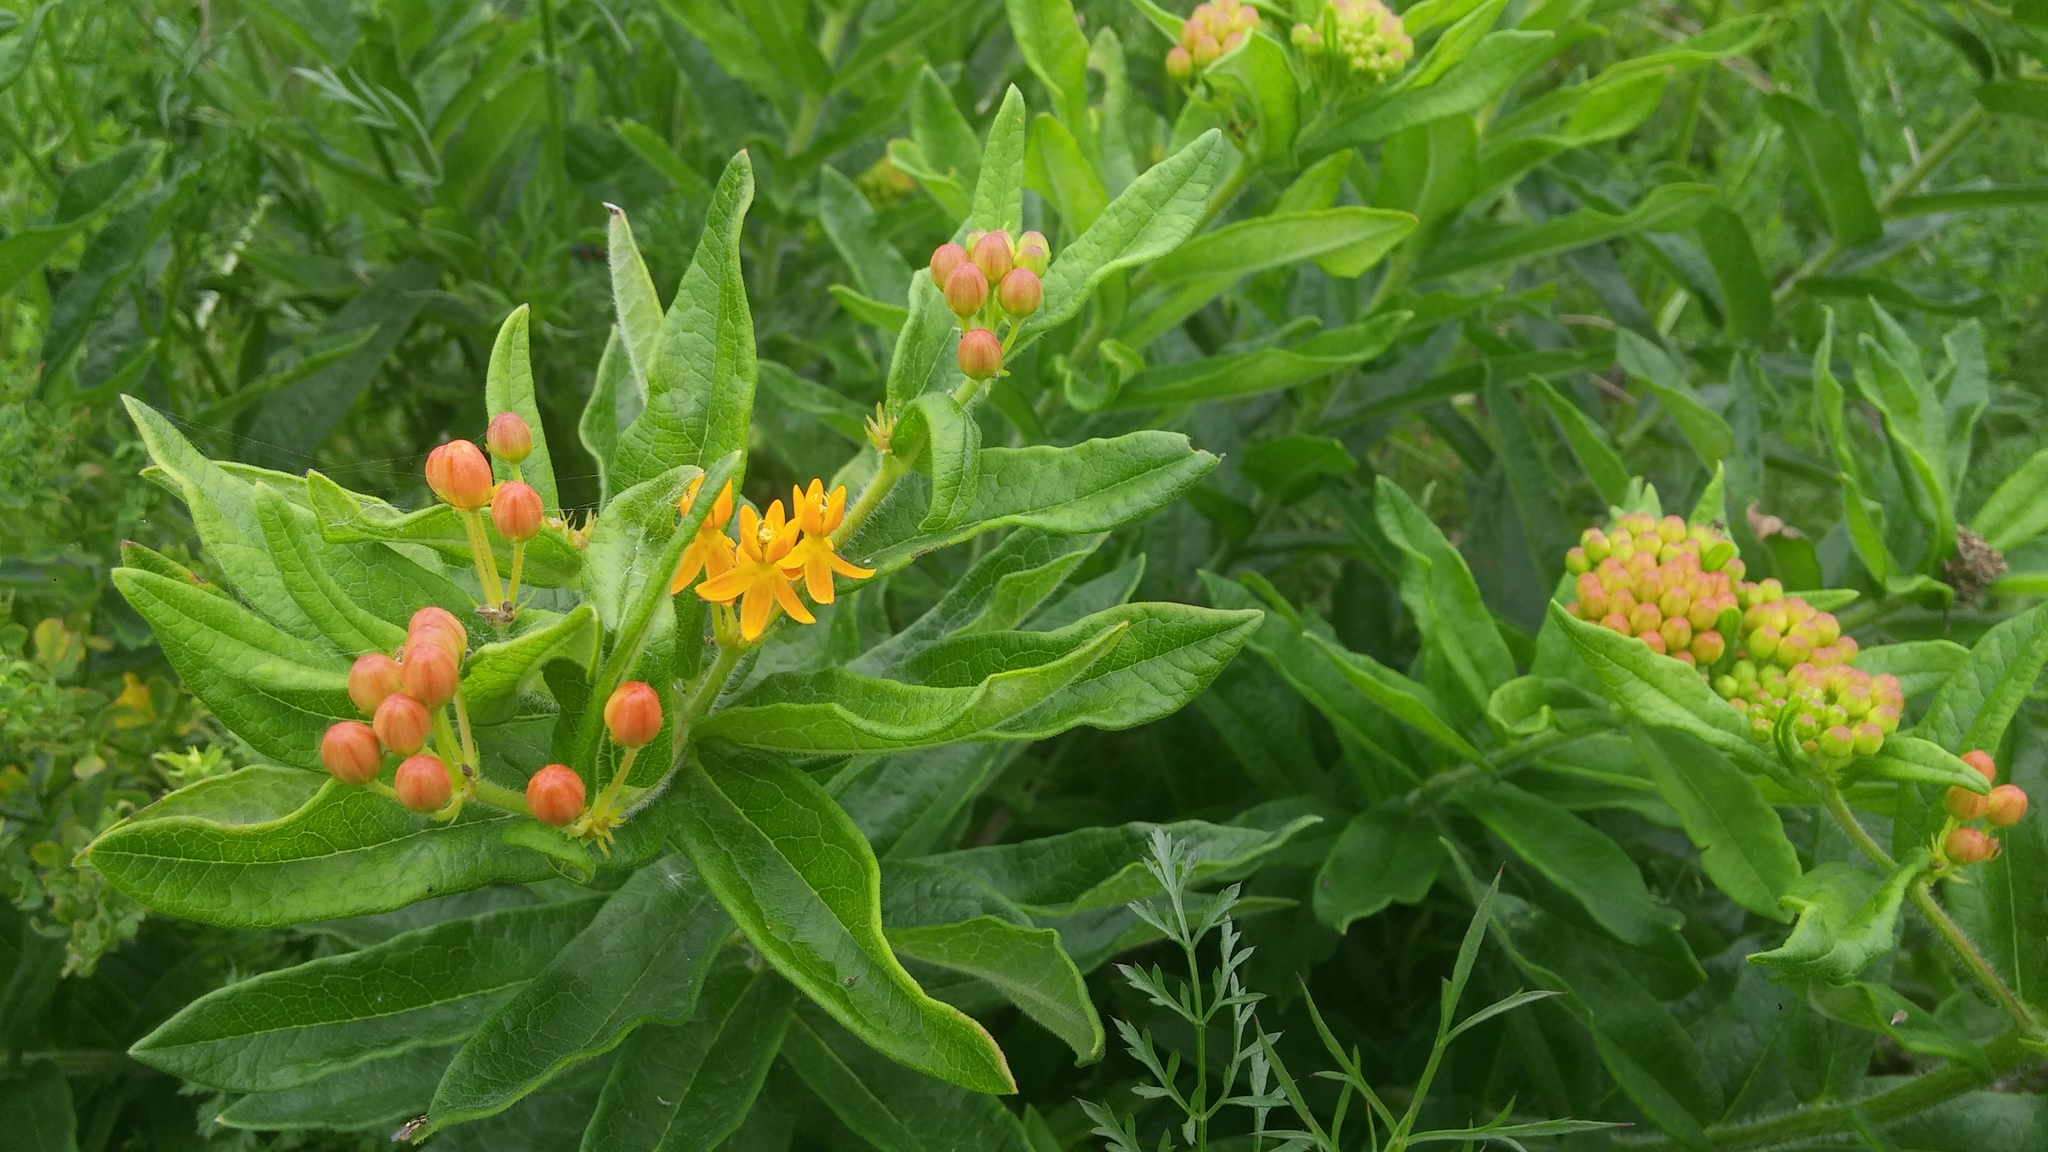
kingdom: Plantae
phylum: Tracheophyta
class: Magnoliopsida
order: Gentianales
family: Apocynaceae
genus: Asclepias
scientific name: Asclepias tuberosa
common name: Butterfly milkweed
